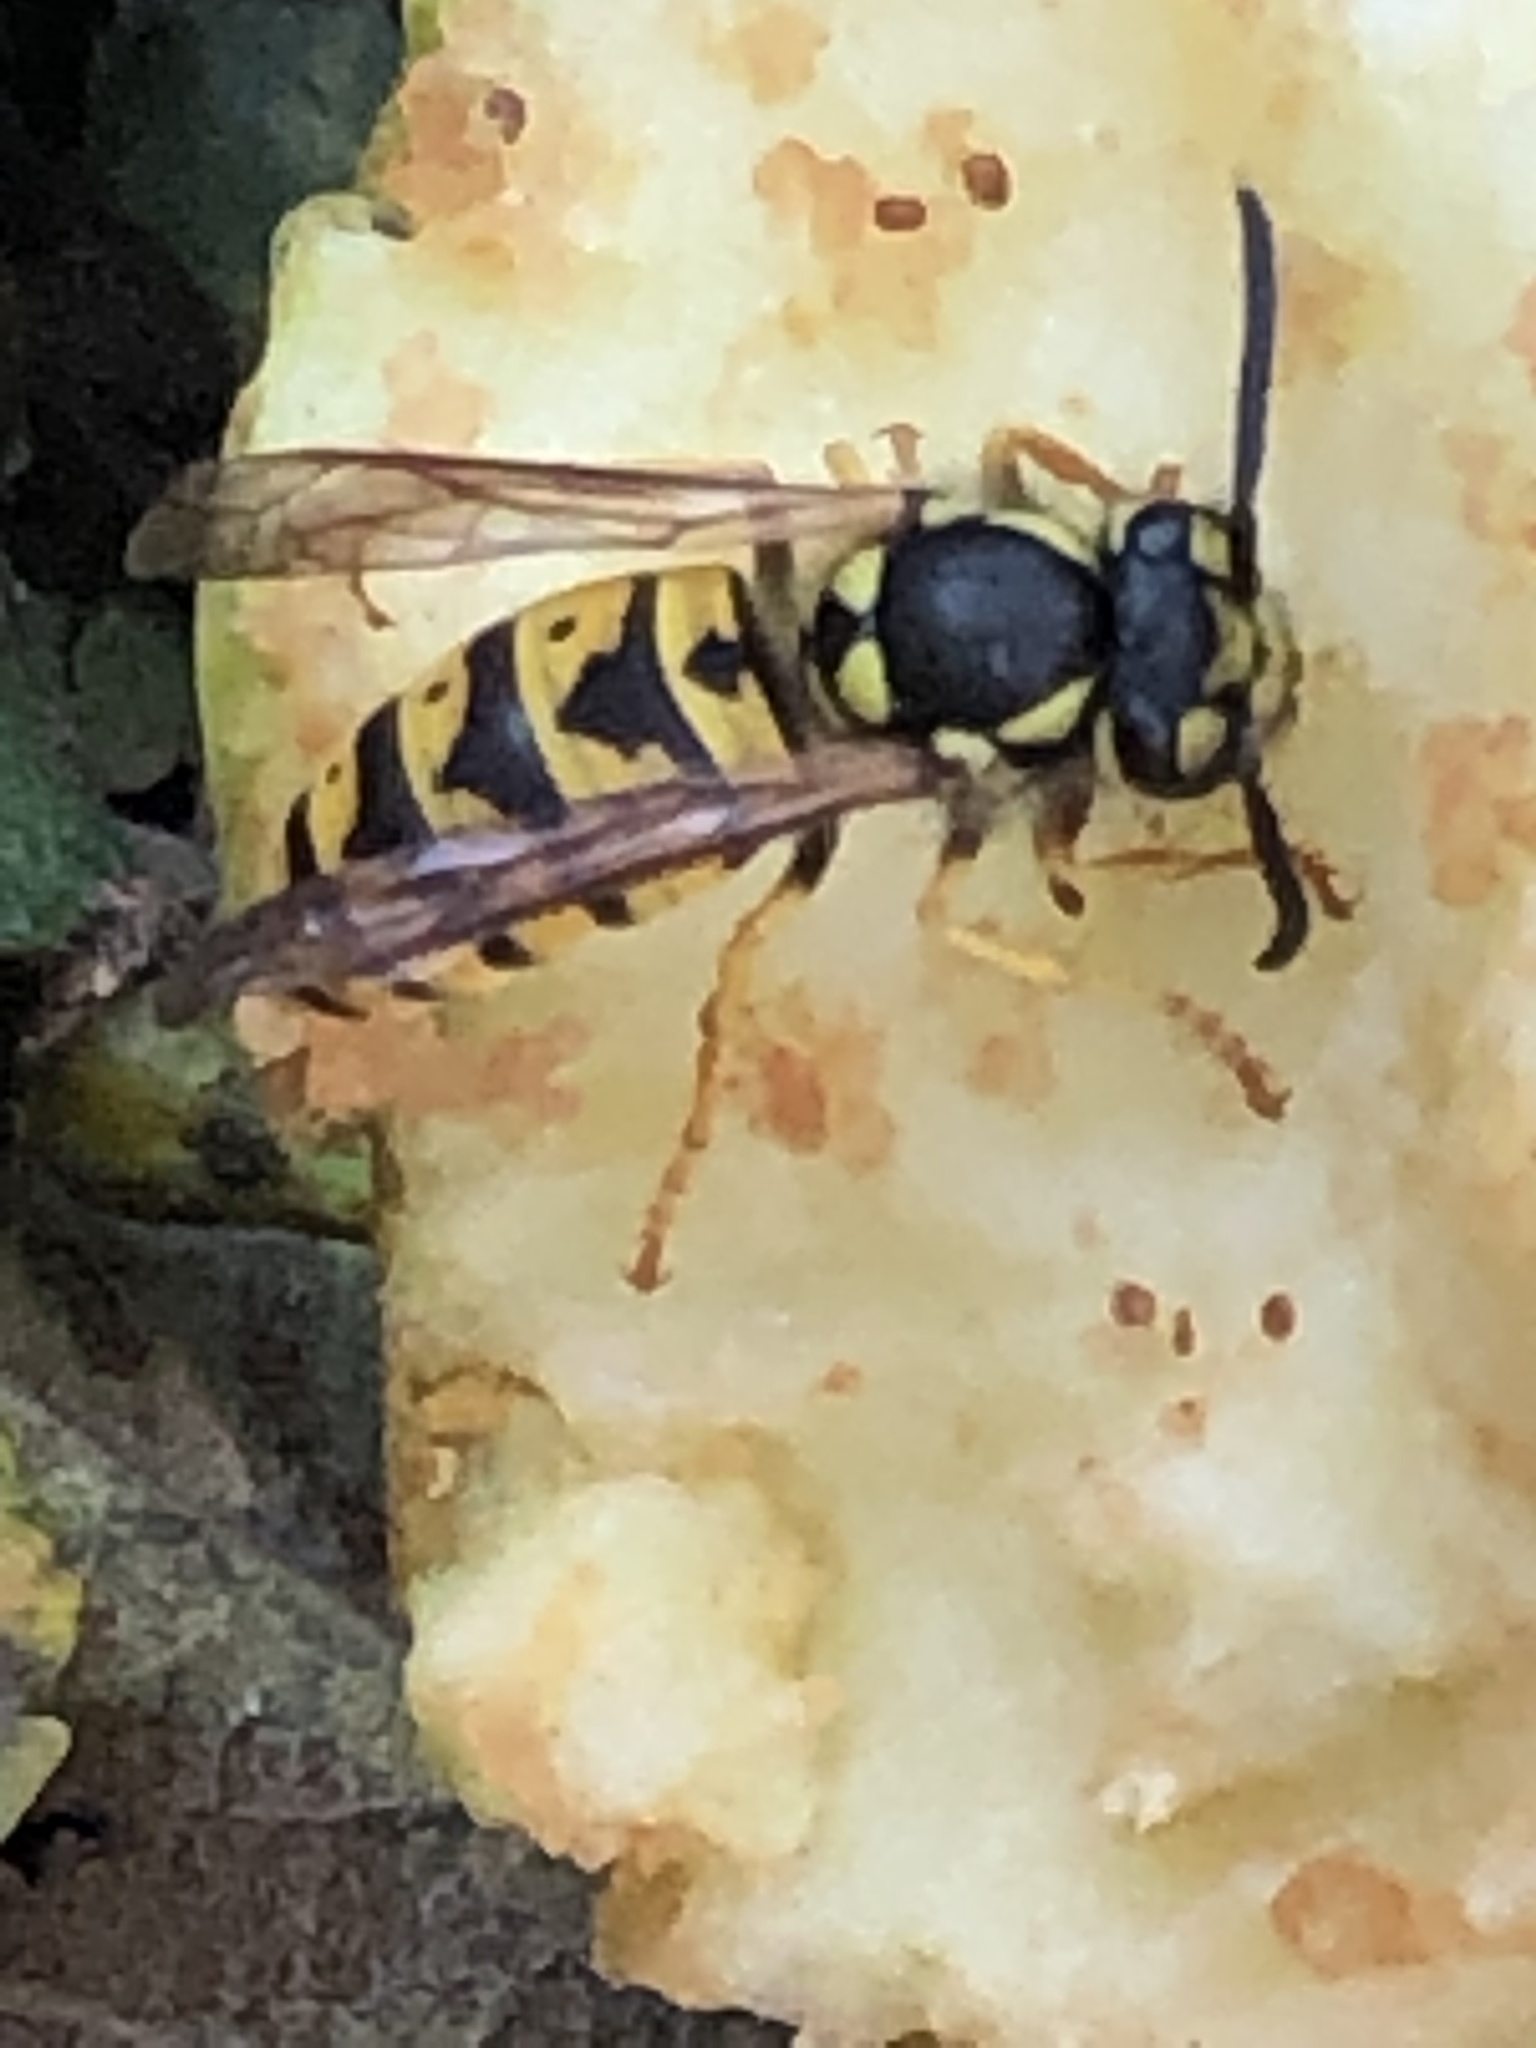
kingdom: Animalia
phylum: Arthropoda
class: Insecta
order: Hymenoptera
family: Vespidae
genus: Vespula
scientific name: Vespula germanica
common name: German wasp
